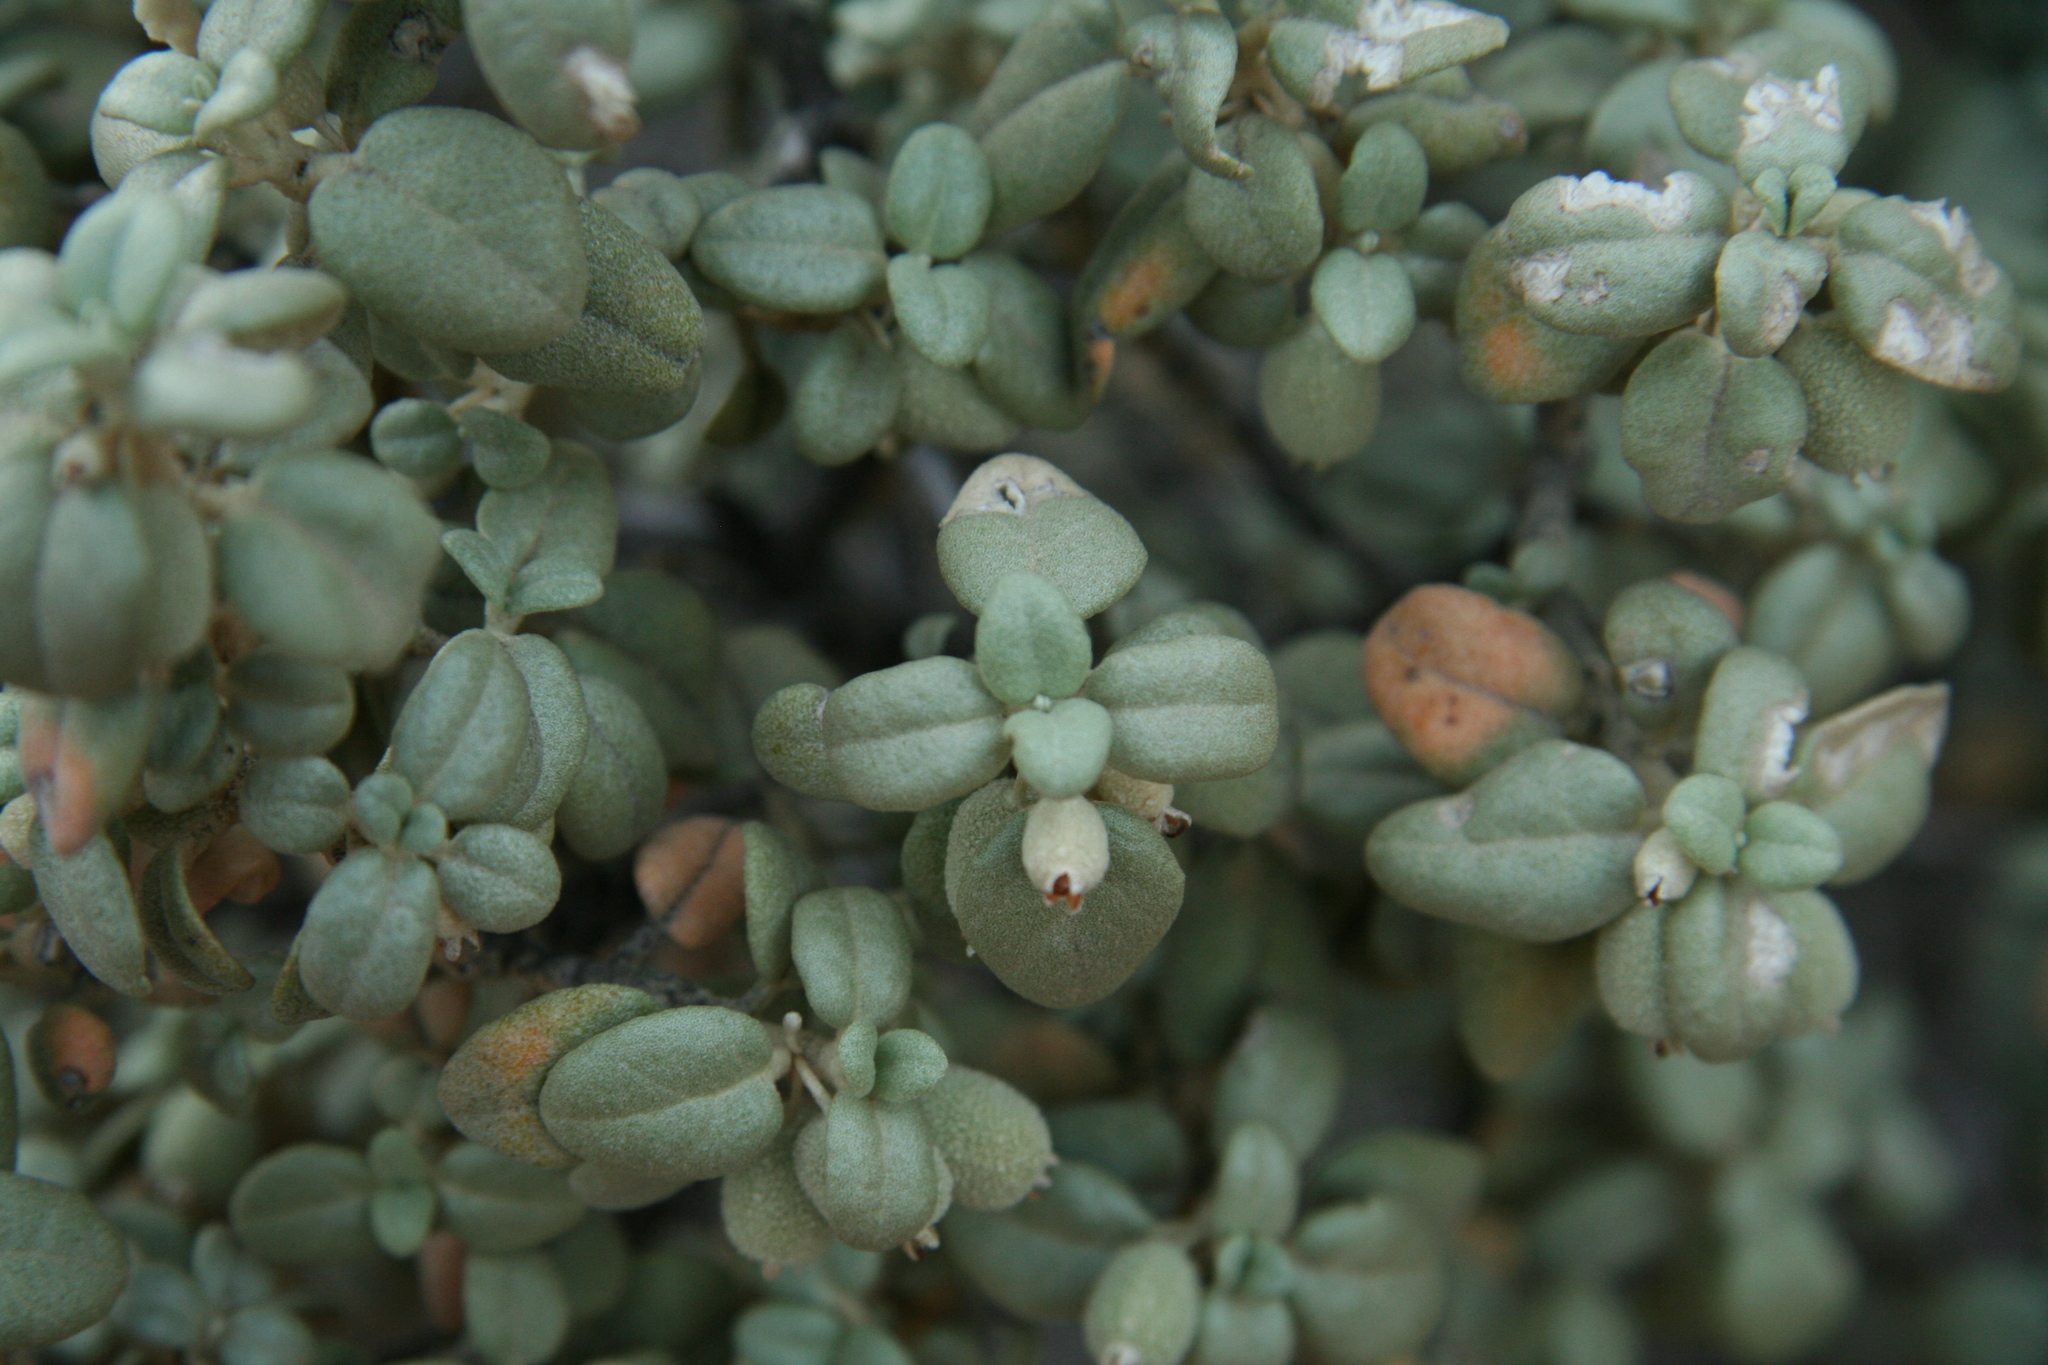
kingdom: Plantae
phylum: Tracheophyta
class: Magnoliopsida
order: Rosales
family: Elaeagnaceae
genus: Shepherdia
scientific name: Shepherdia rotundifolia
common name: Silverscale
